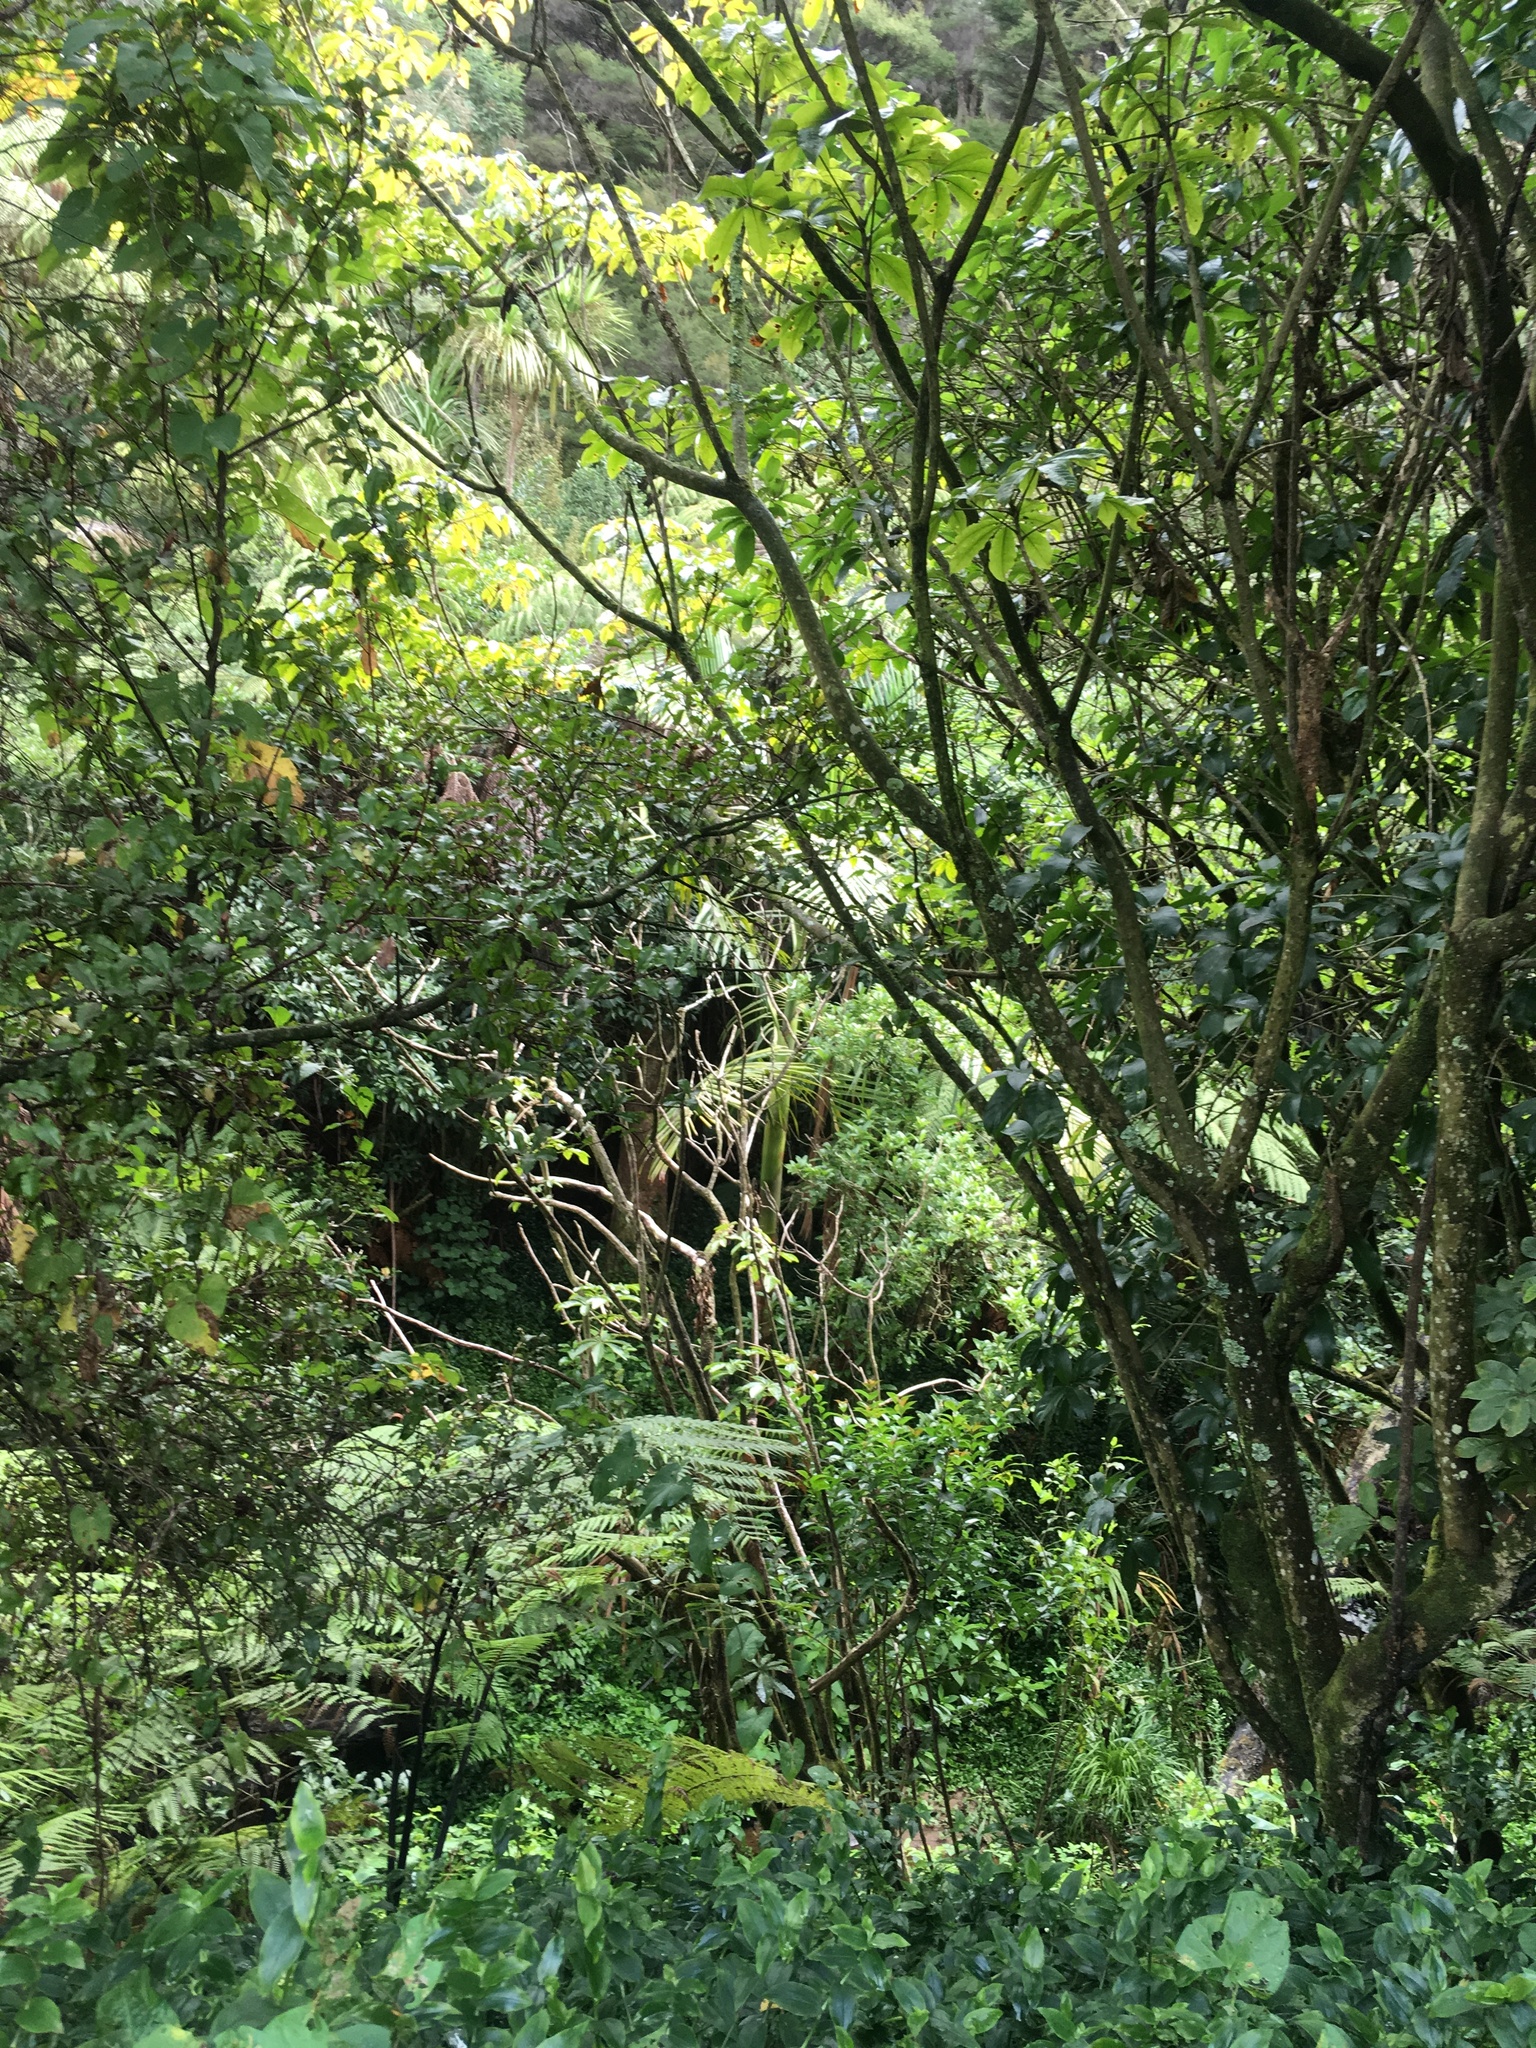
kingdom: Plantae
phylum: Tracheophyta
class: Liliopsida
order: Arecales
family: Arecaceae
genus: Archontophoenix
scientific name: Archontophoenix cunninghamiana
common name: Piccabeen bangalow palm
